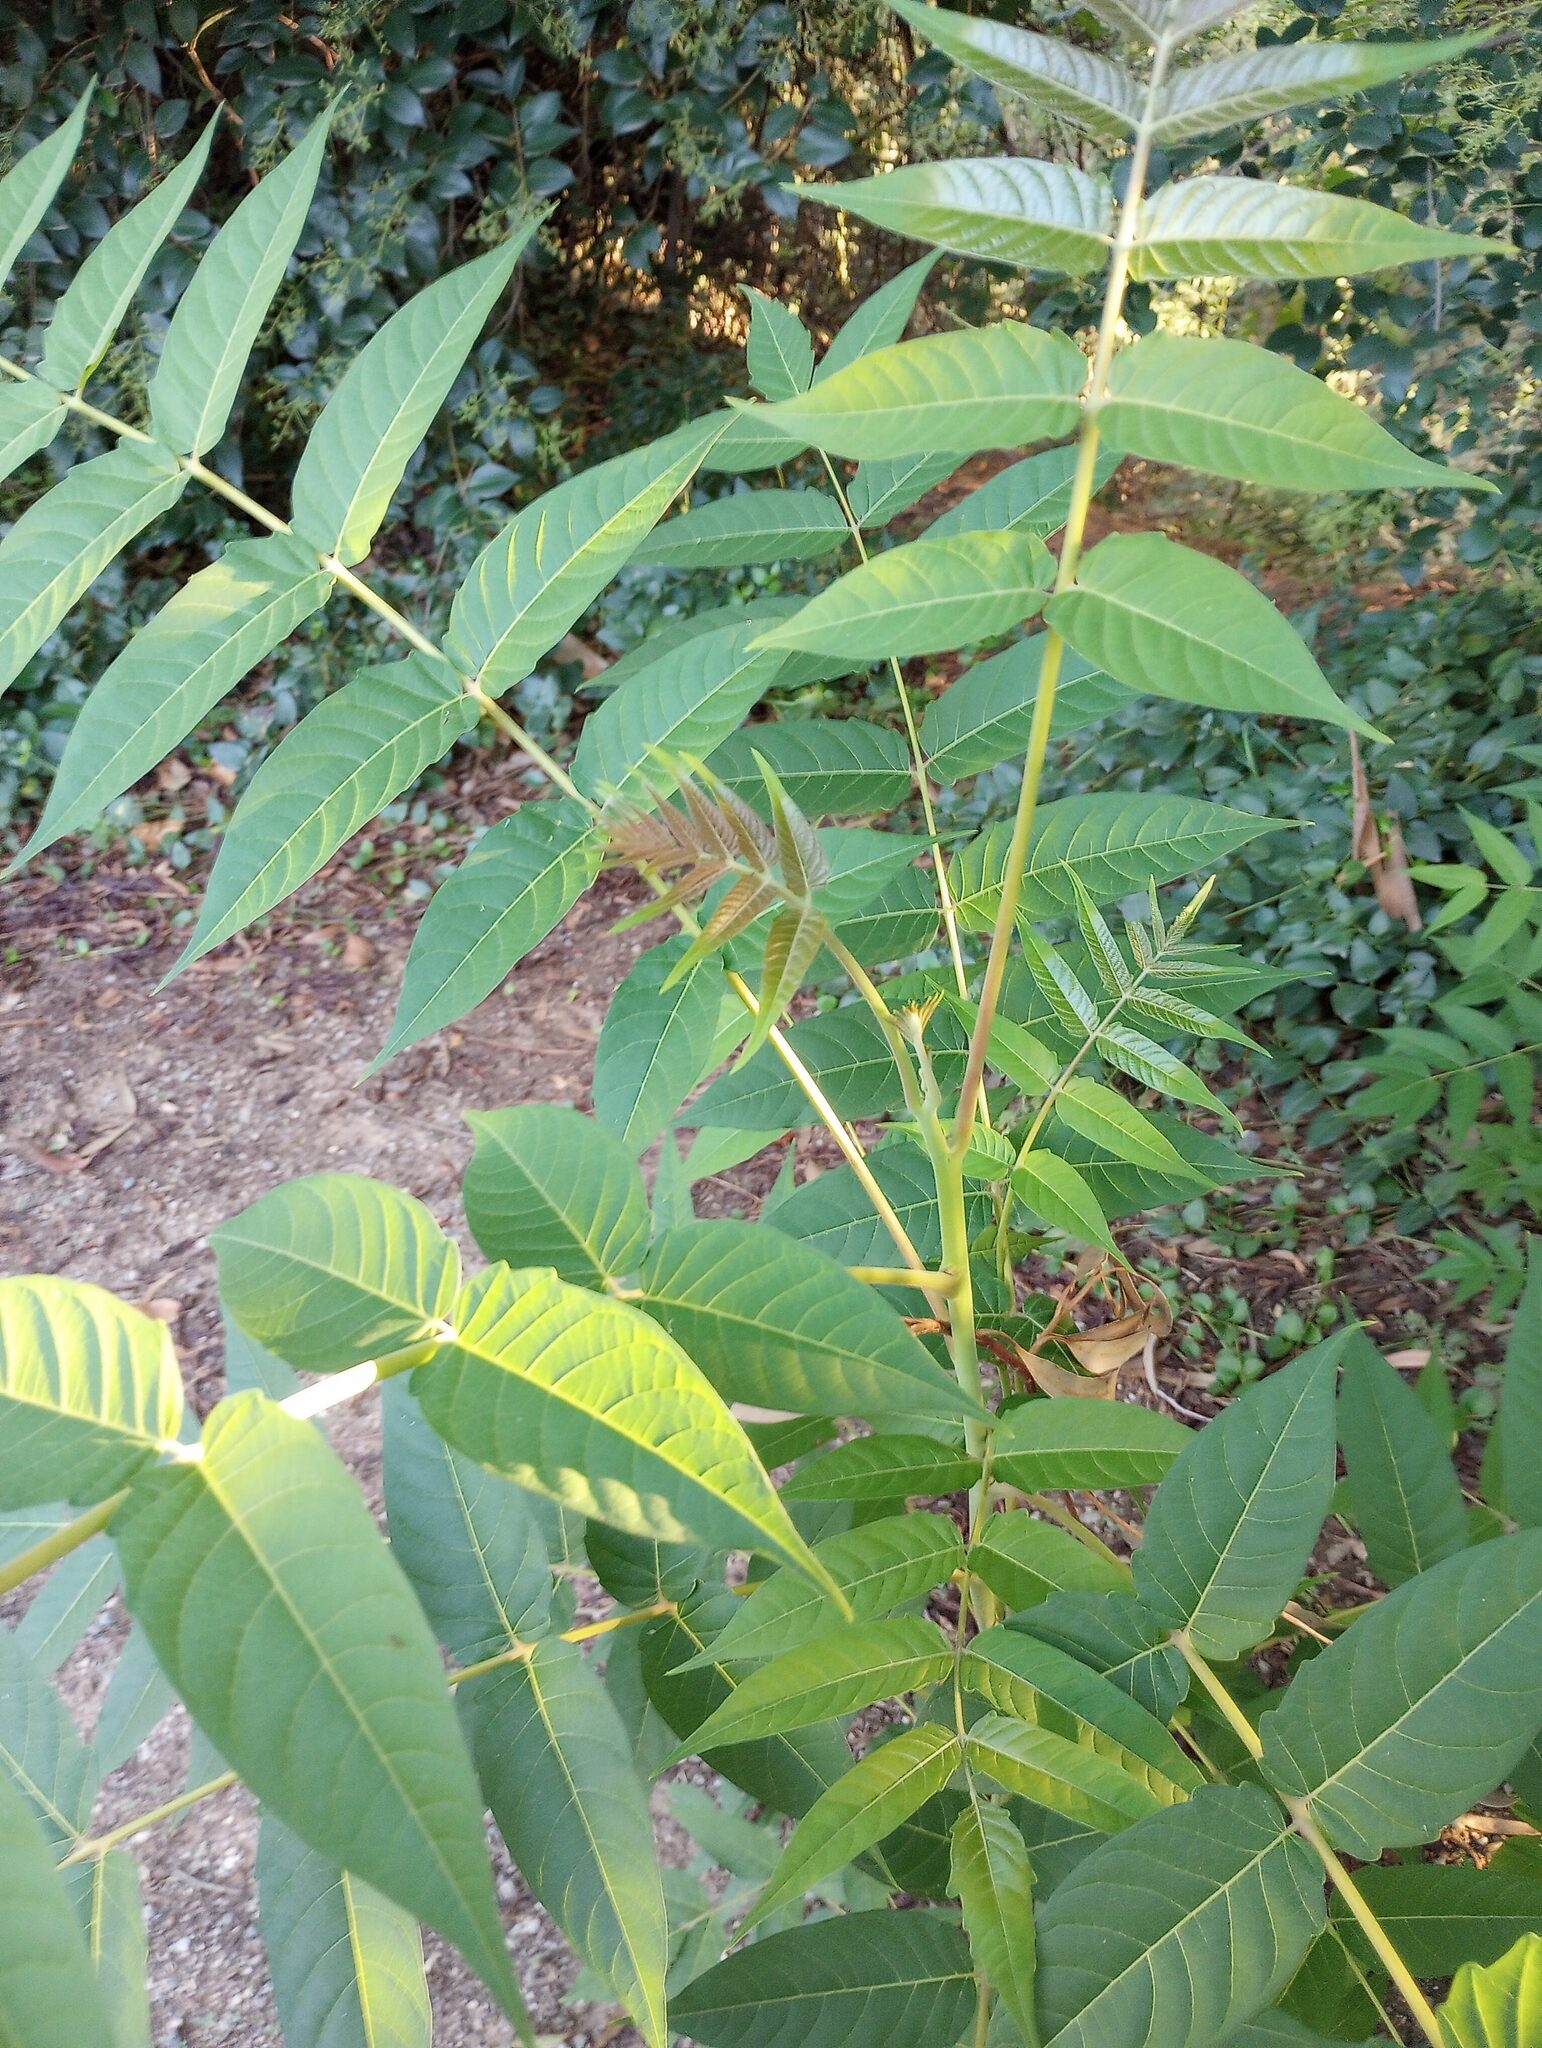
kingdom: Plantae
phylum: Tracheophyta
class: Magnoliopsida
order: Sapindales
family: Simaroubaceae
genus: Ailanthus
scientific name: Ailanthus altissima
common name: Tree-of-heaven
